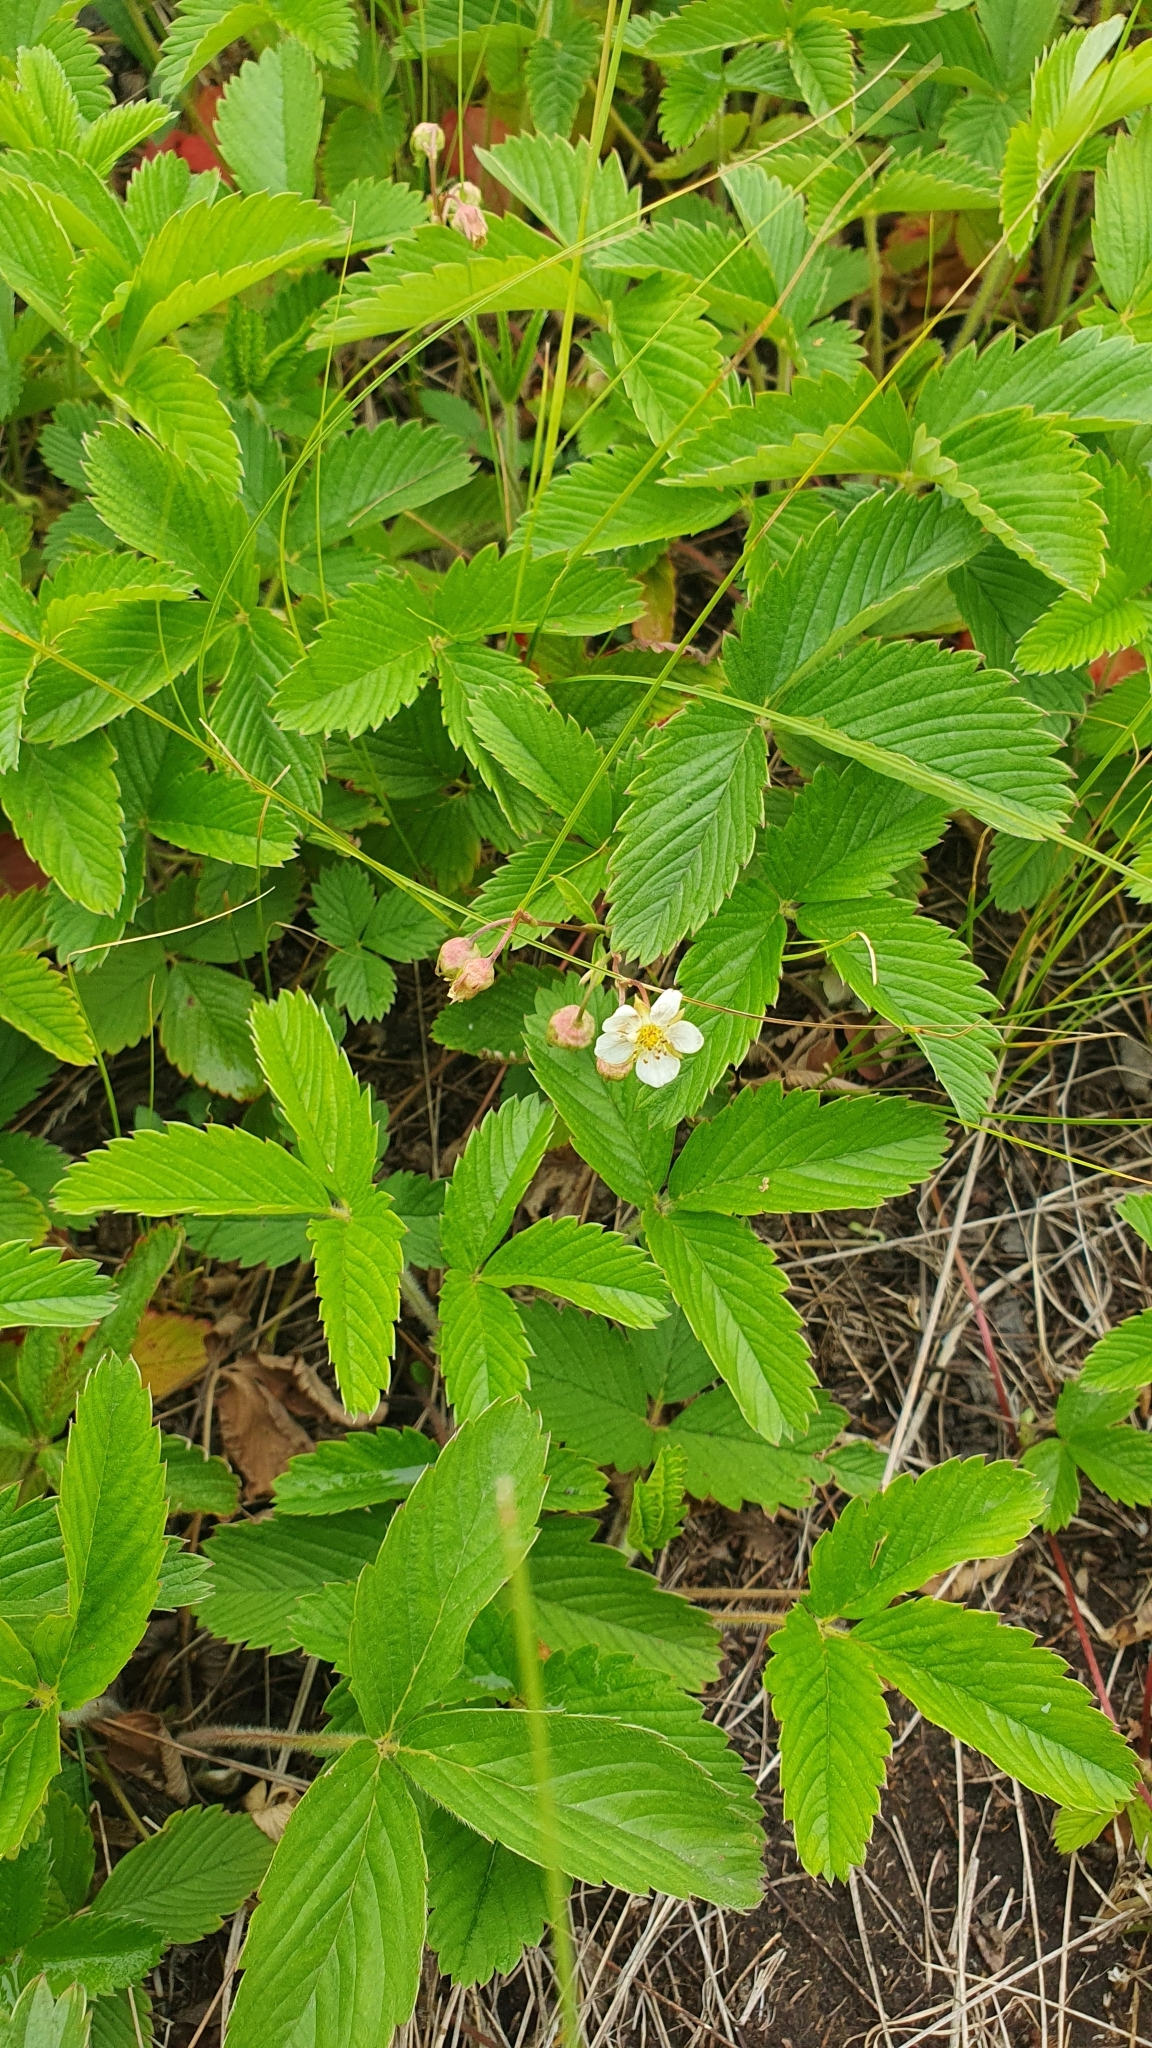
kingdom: Plantae
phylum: Tracheophyta
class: Magnoliopsida
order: Rosales
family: Rosaceae
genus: Fragaria
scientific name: Fragaria viridis
